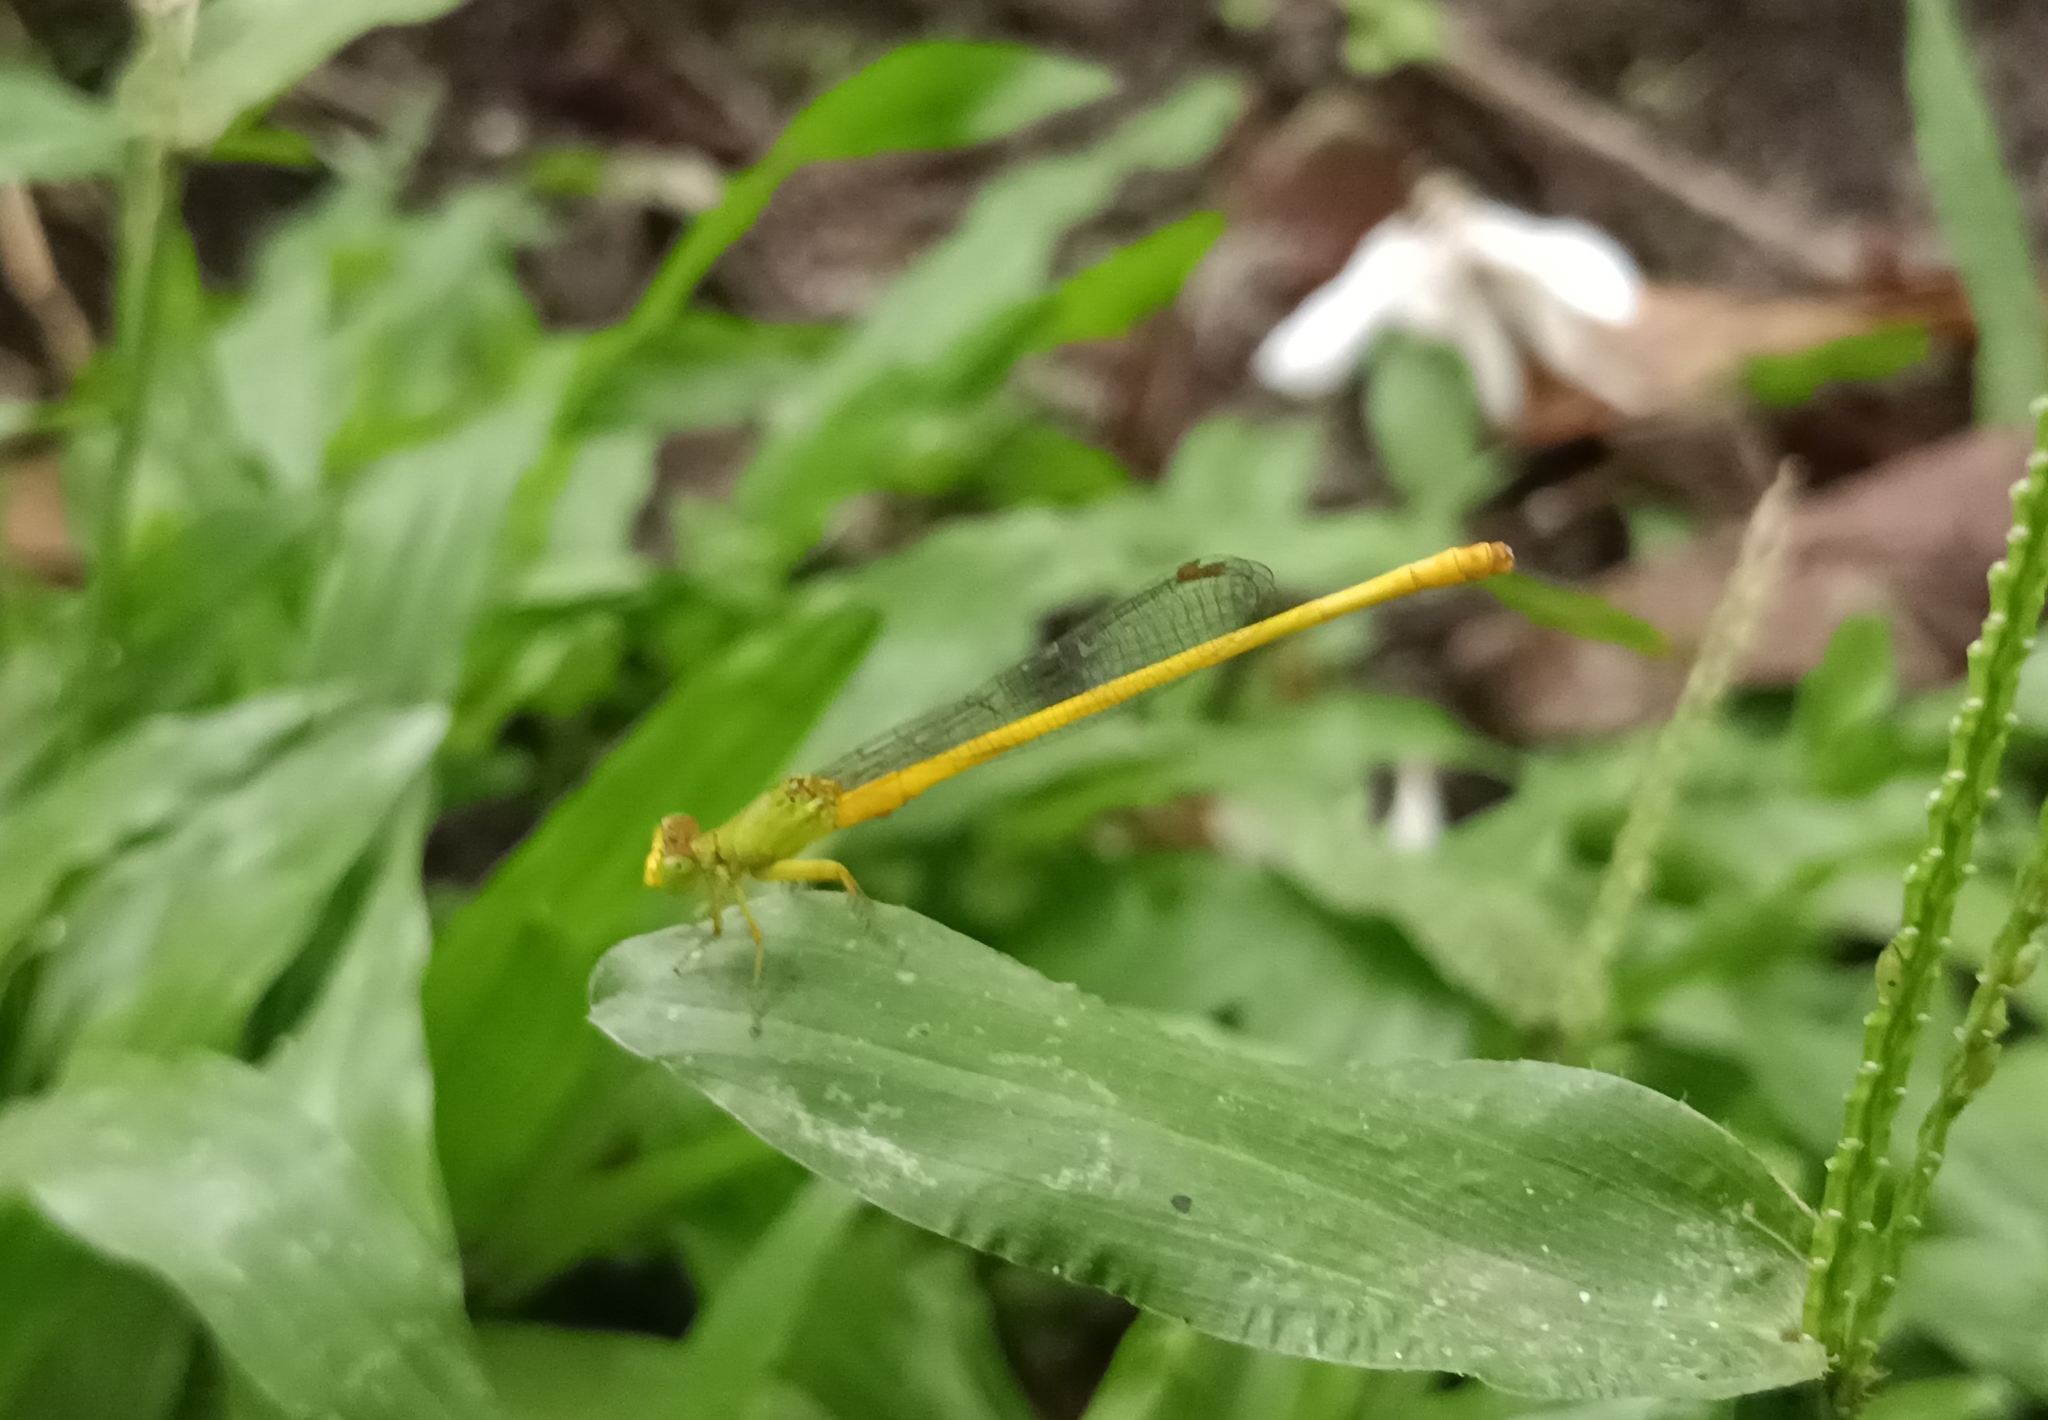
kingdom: Animalia
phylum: Arthropoda
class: Insecta
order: Odonata
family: Coenagrionidae
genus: Ceriagrion
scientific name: Ceriagrion coromandelianum
